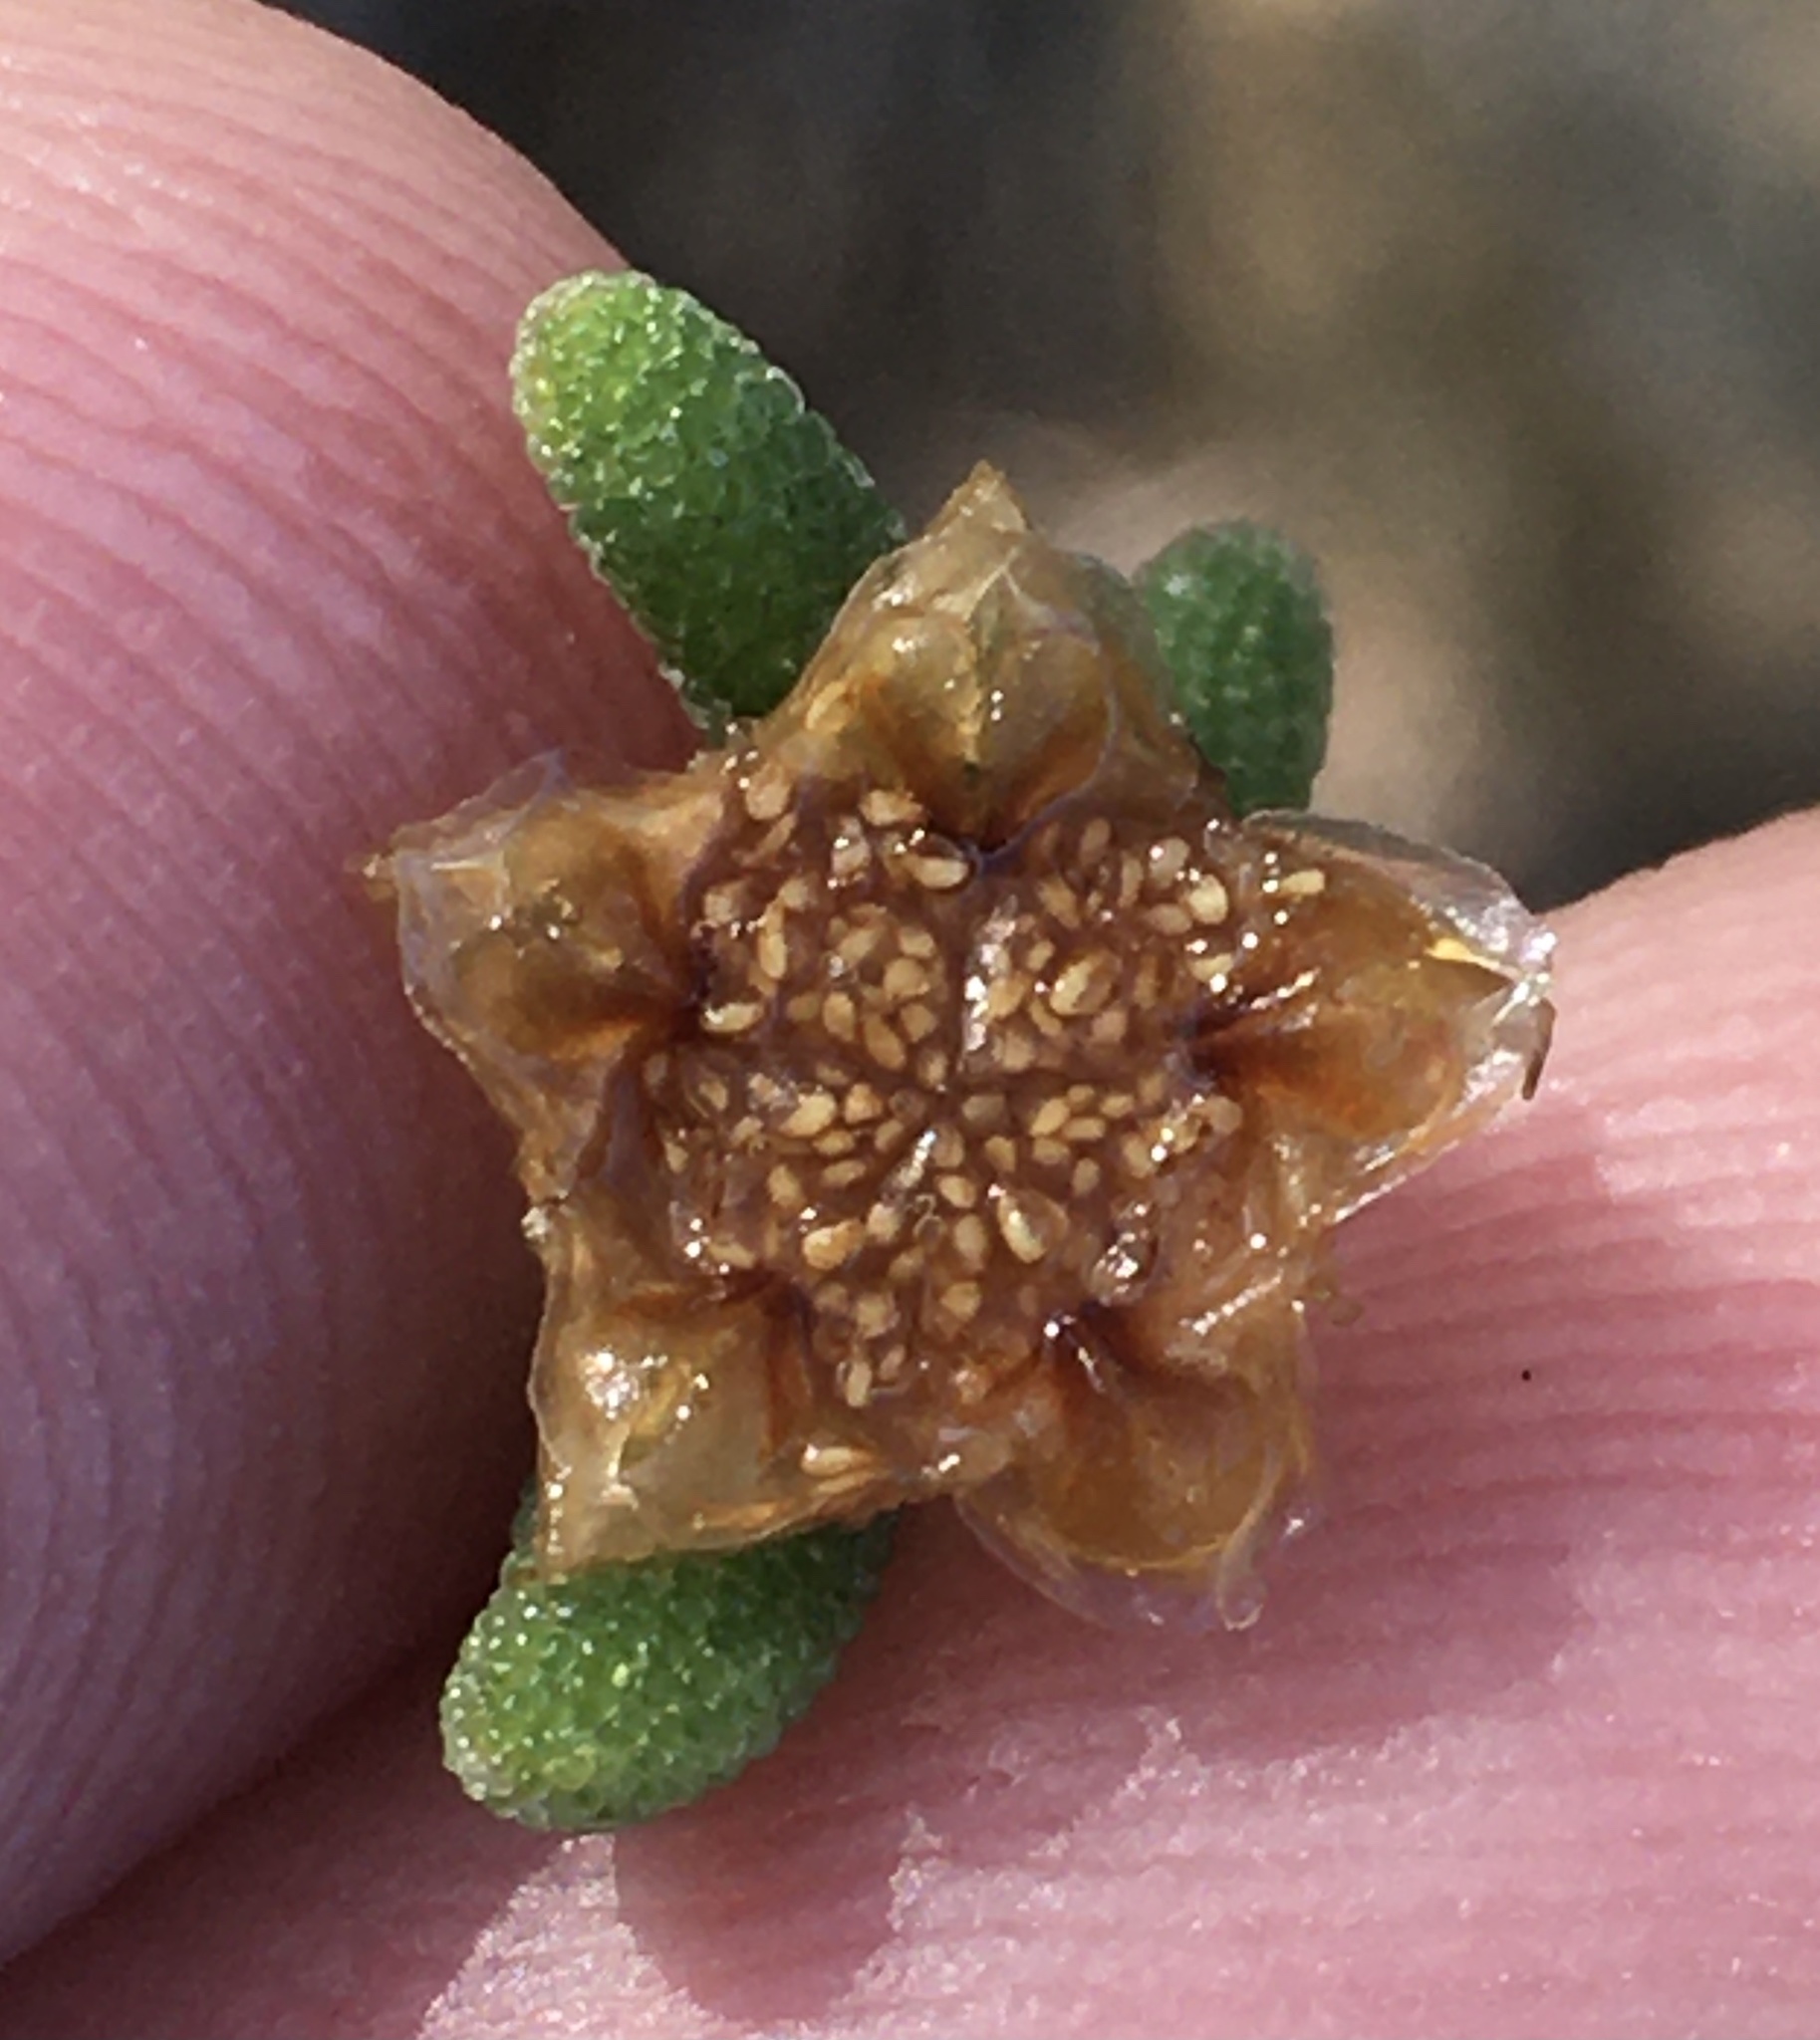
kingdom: Plantae
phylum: Tracheophyta
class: Magnoliopsida
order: Caryophyllales
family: Aizoaceae
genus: Drosanthemum
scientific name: Drosanthemum lique
